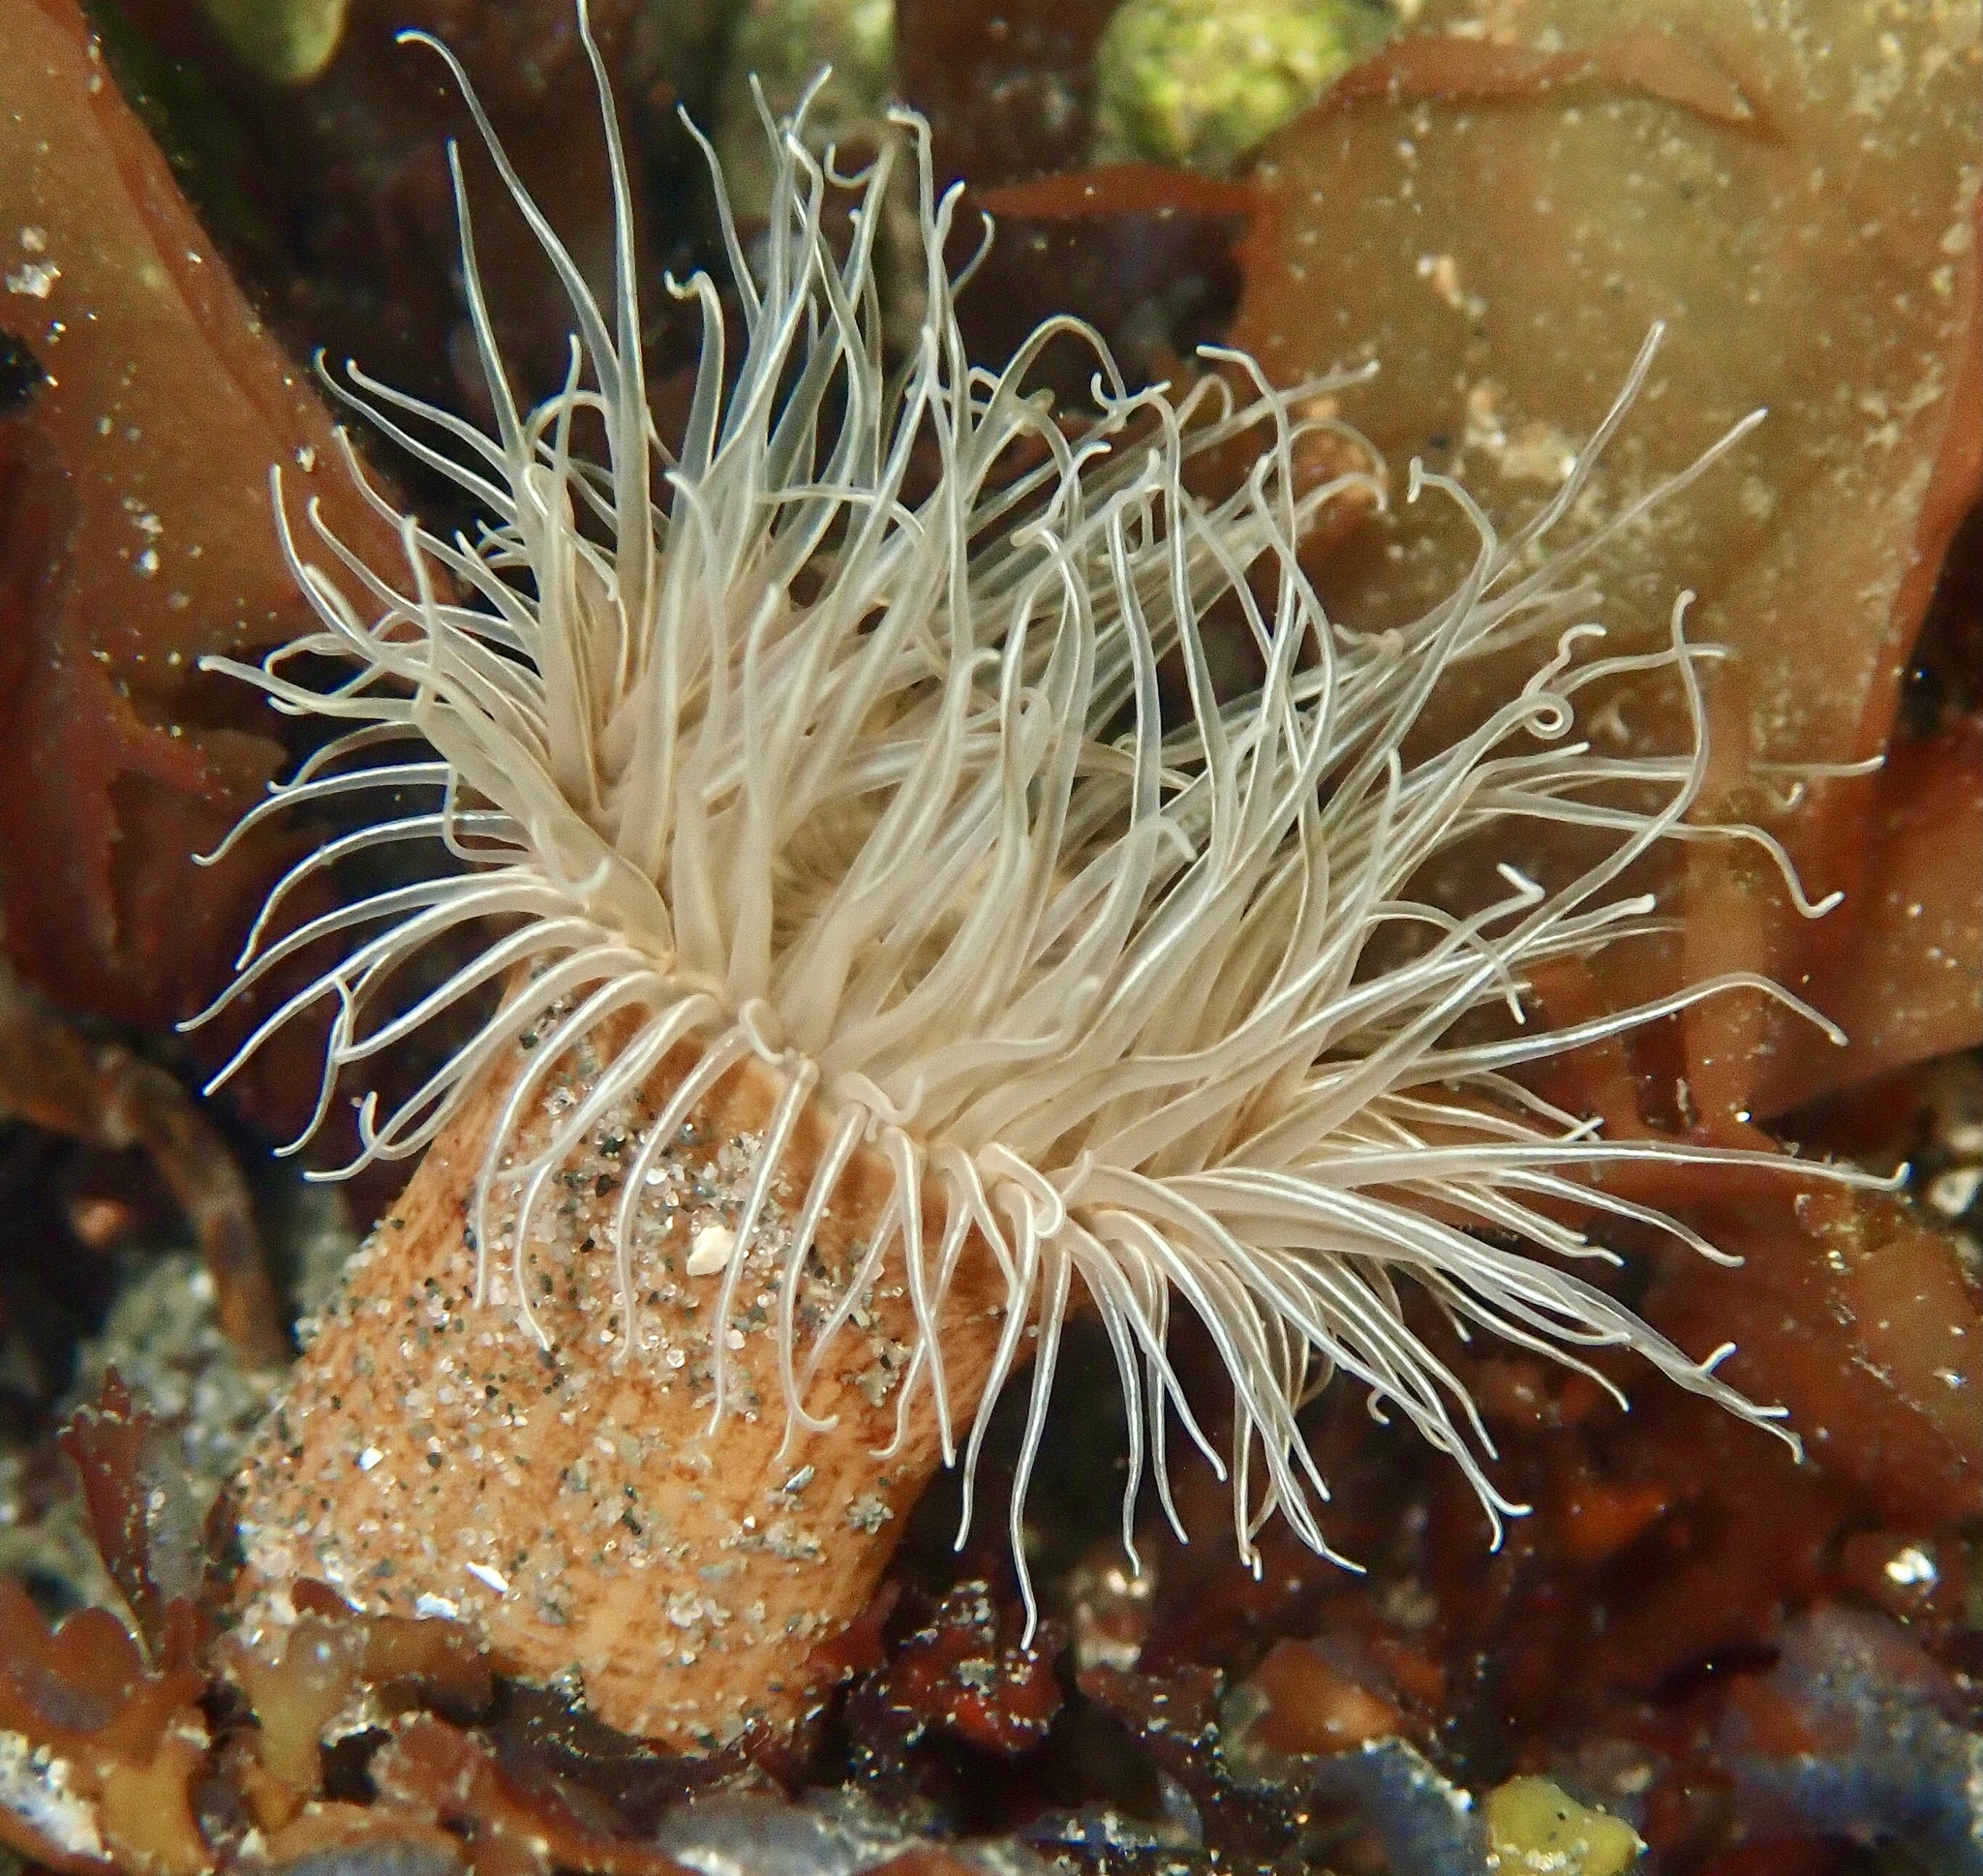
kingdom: Animalia
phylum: Cnidaria
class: Anthozoa
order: Actiniaria
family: Sagartiidae
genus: Sagartia
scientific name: Sagartia undata
